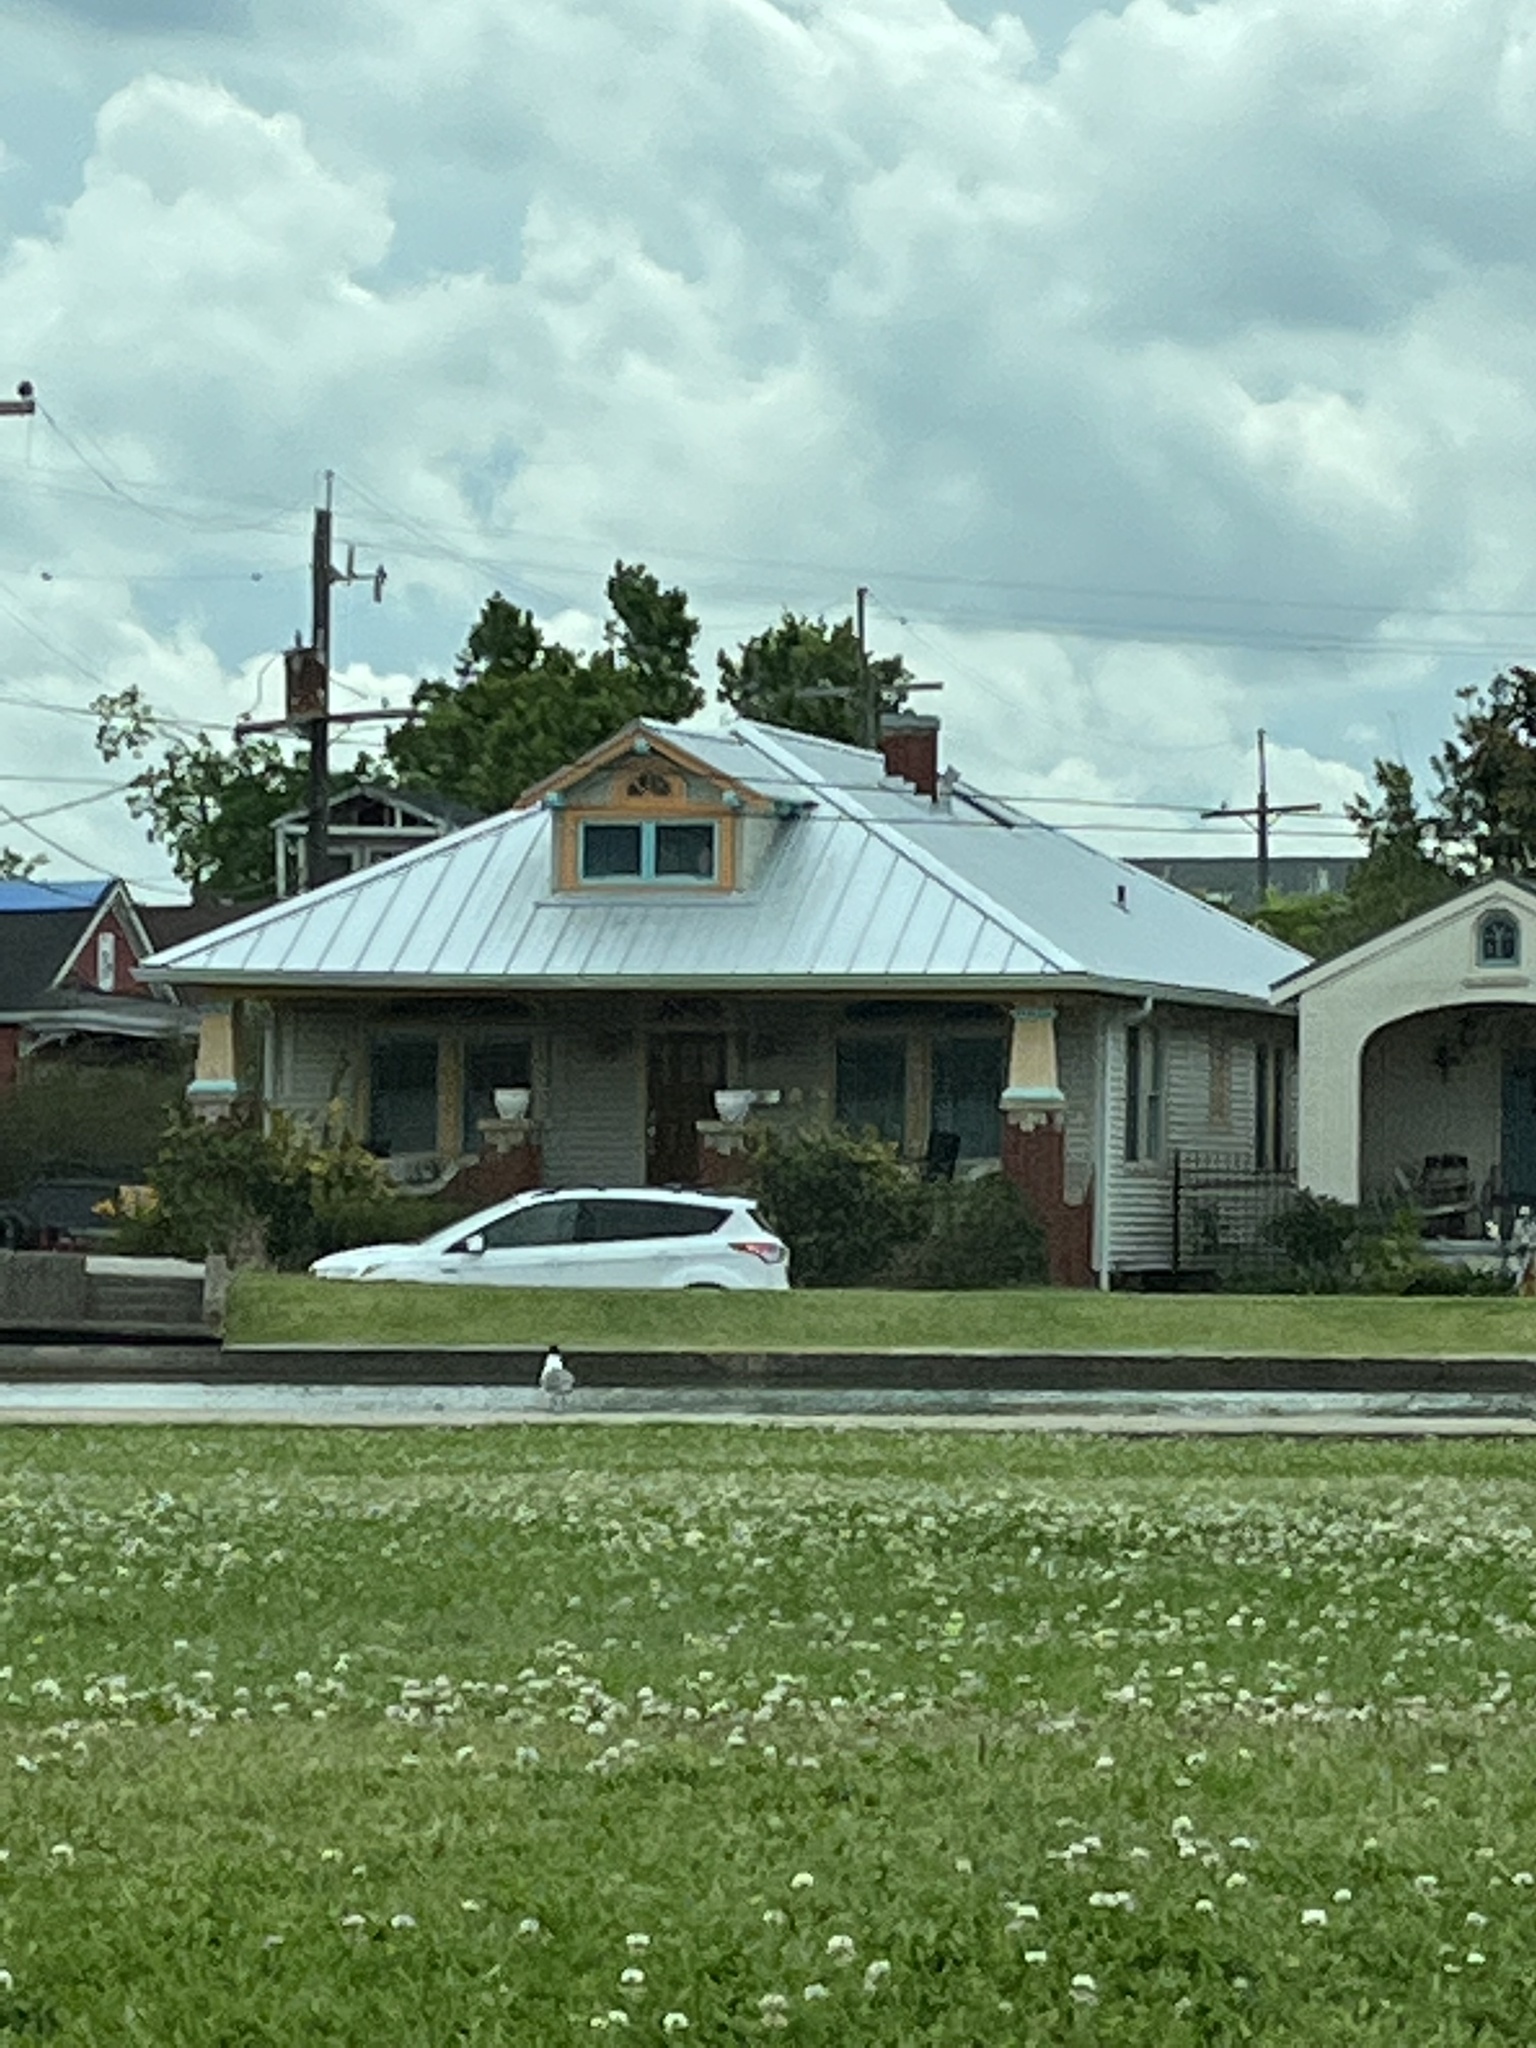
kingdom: Animalia
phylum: Chordata
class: Aves
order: Charadriiformes
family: Laridae
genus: Leucophaeus
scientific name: Leucophaeus atricilla
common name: Laughing gull
